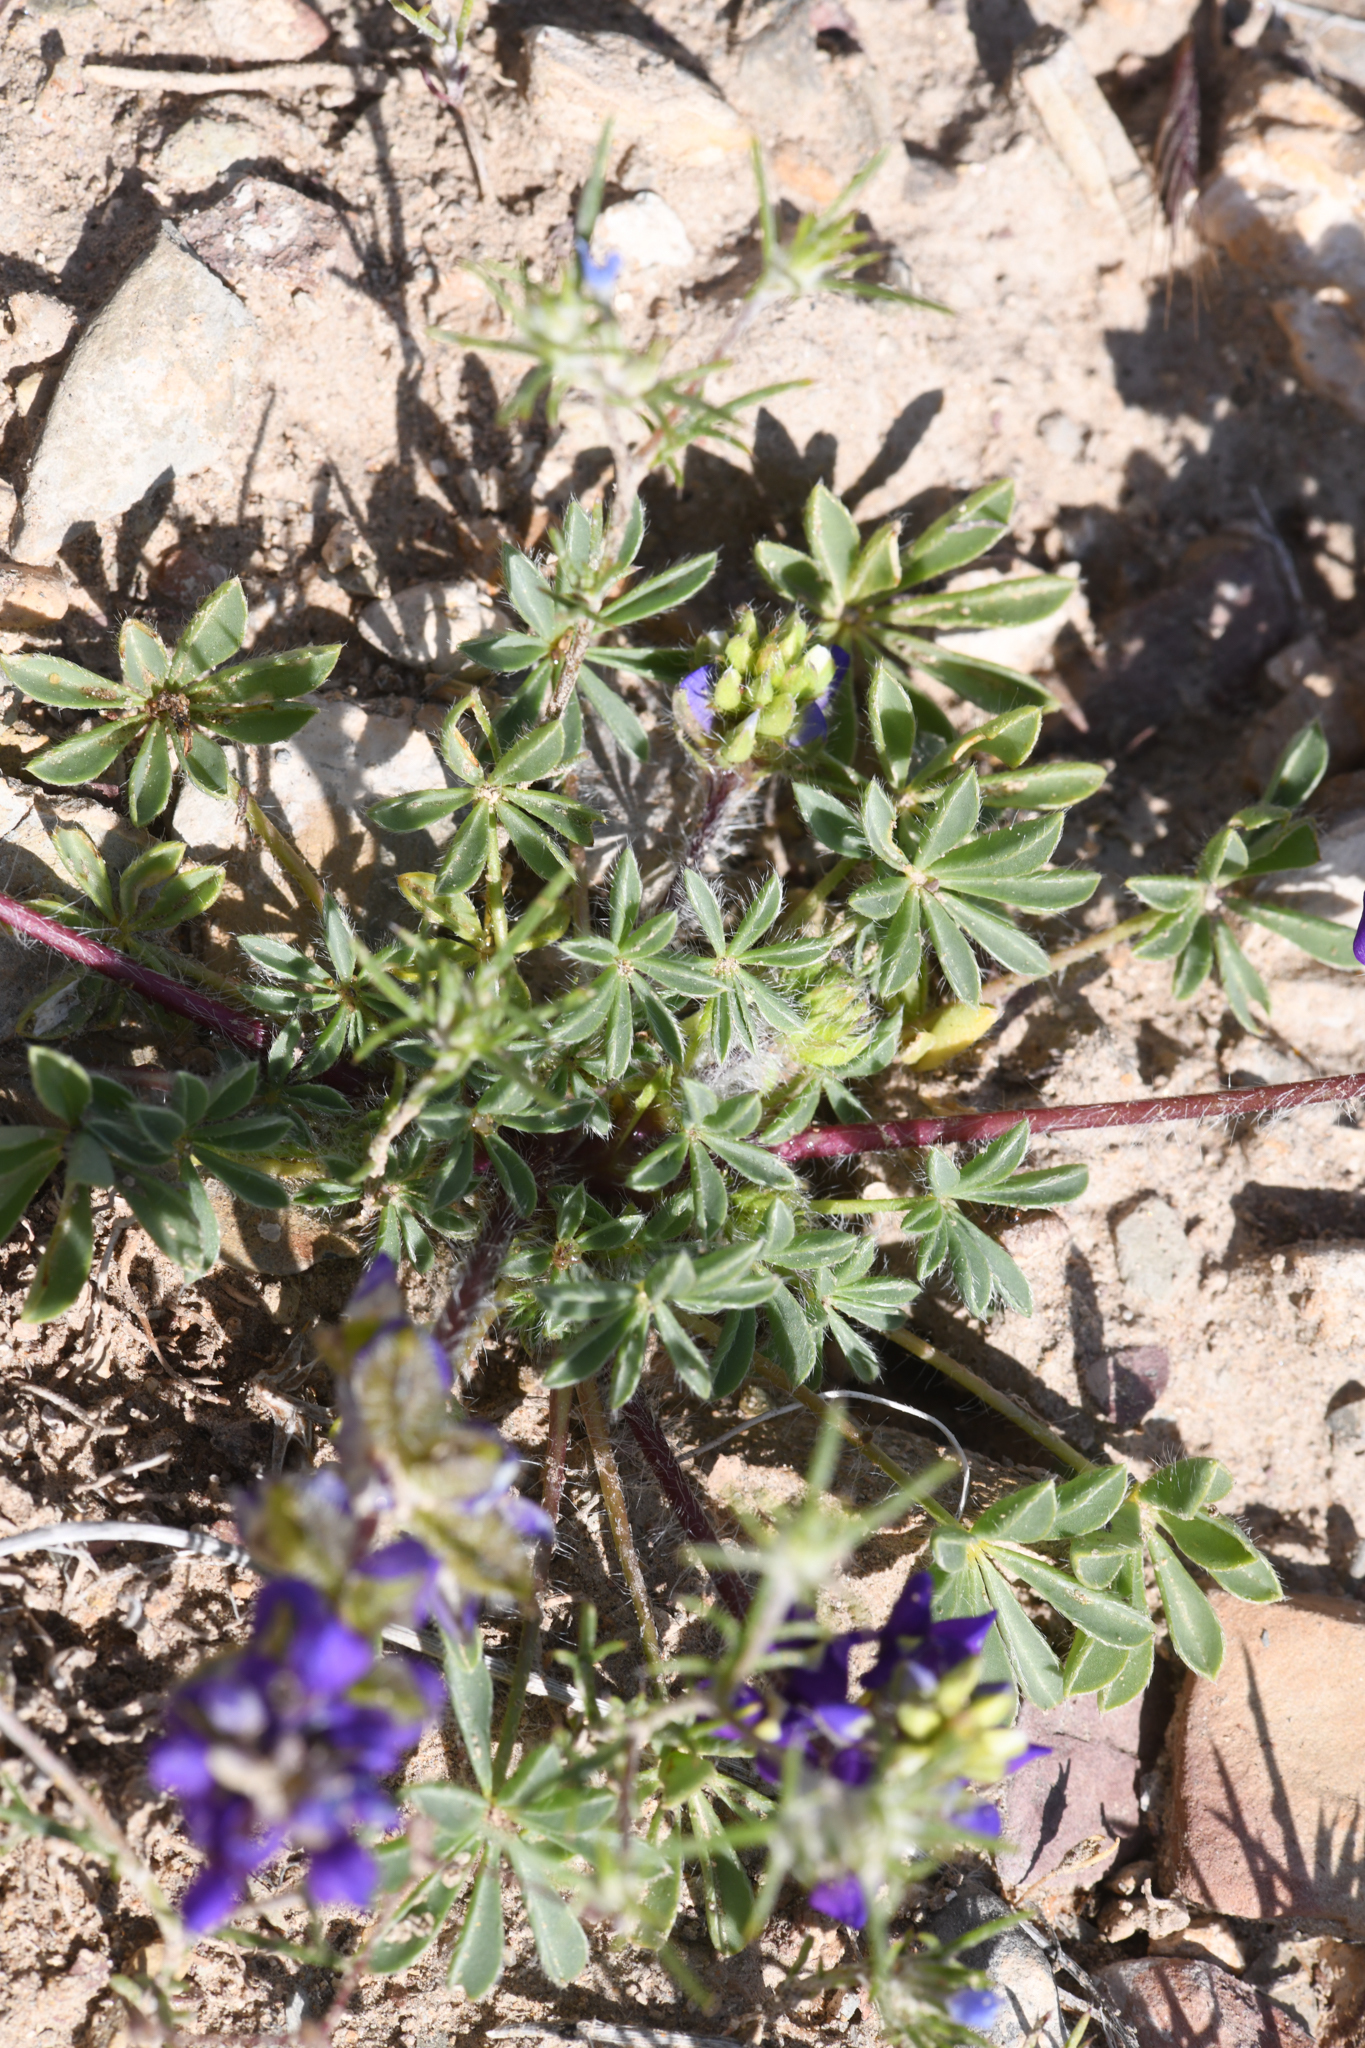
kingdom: Plantae
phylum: Tracheophyta
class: Magnoliopsida
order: Fabales
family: Fabaceae
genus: Lupinus
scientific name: Lupinus flavoculatus
